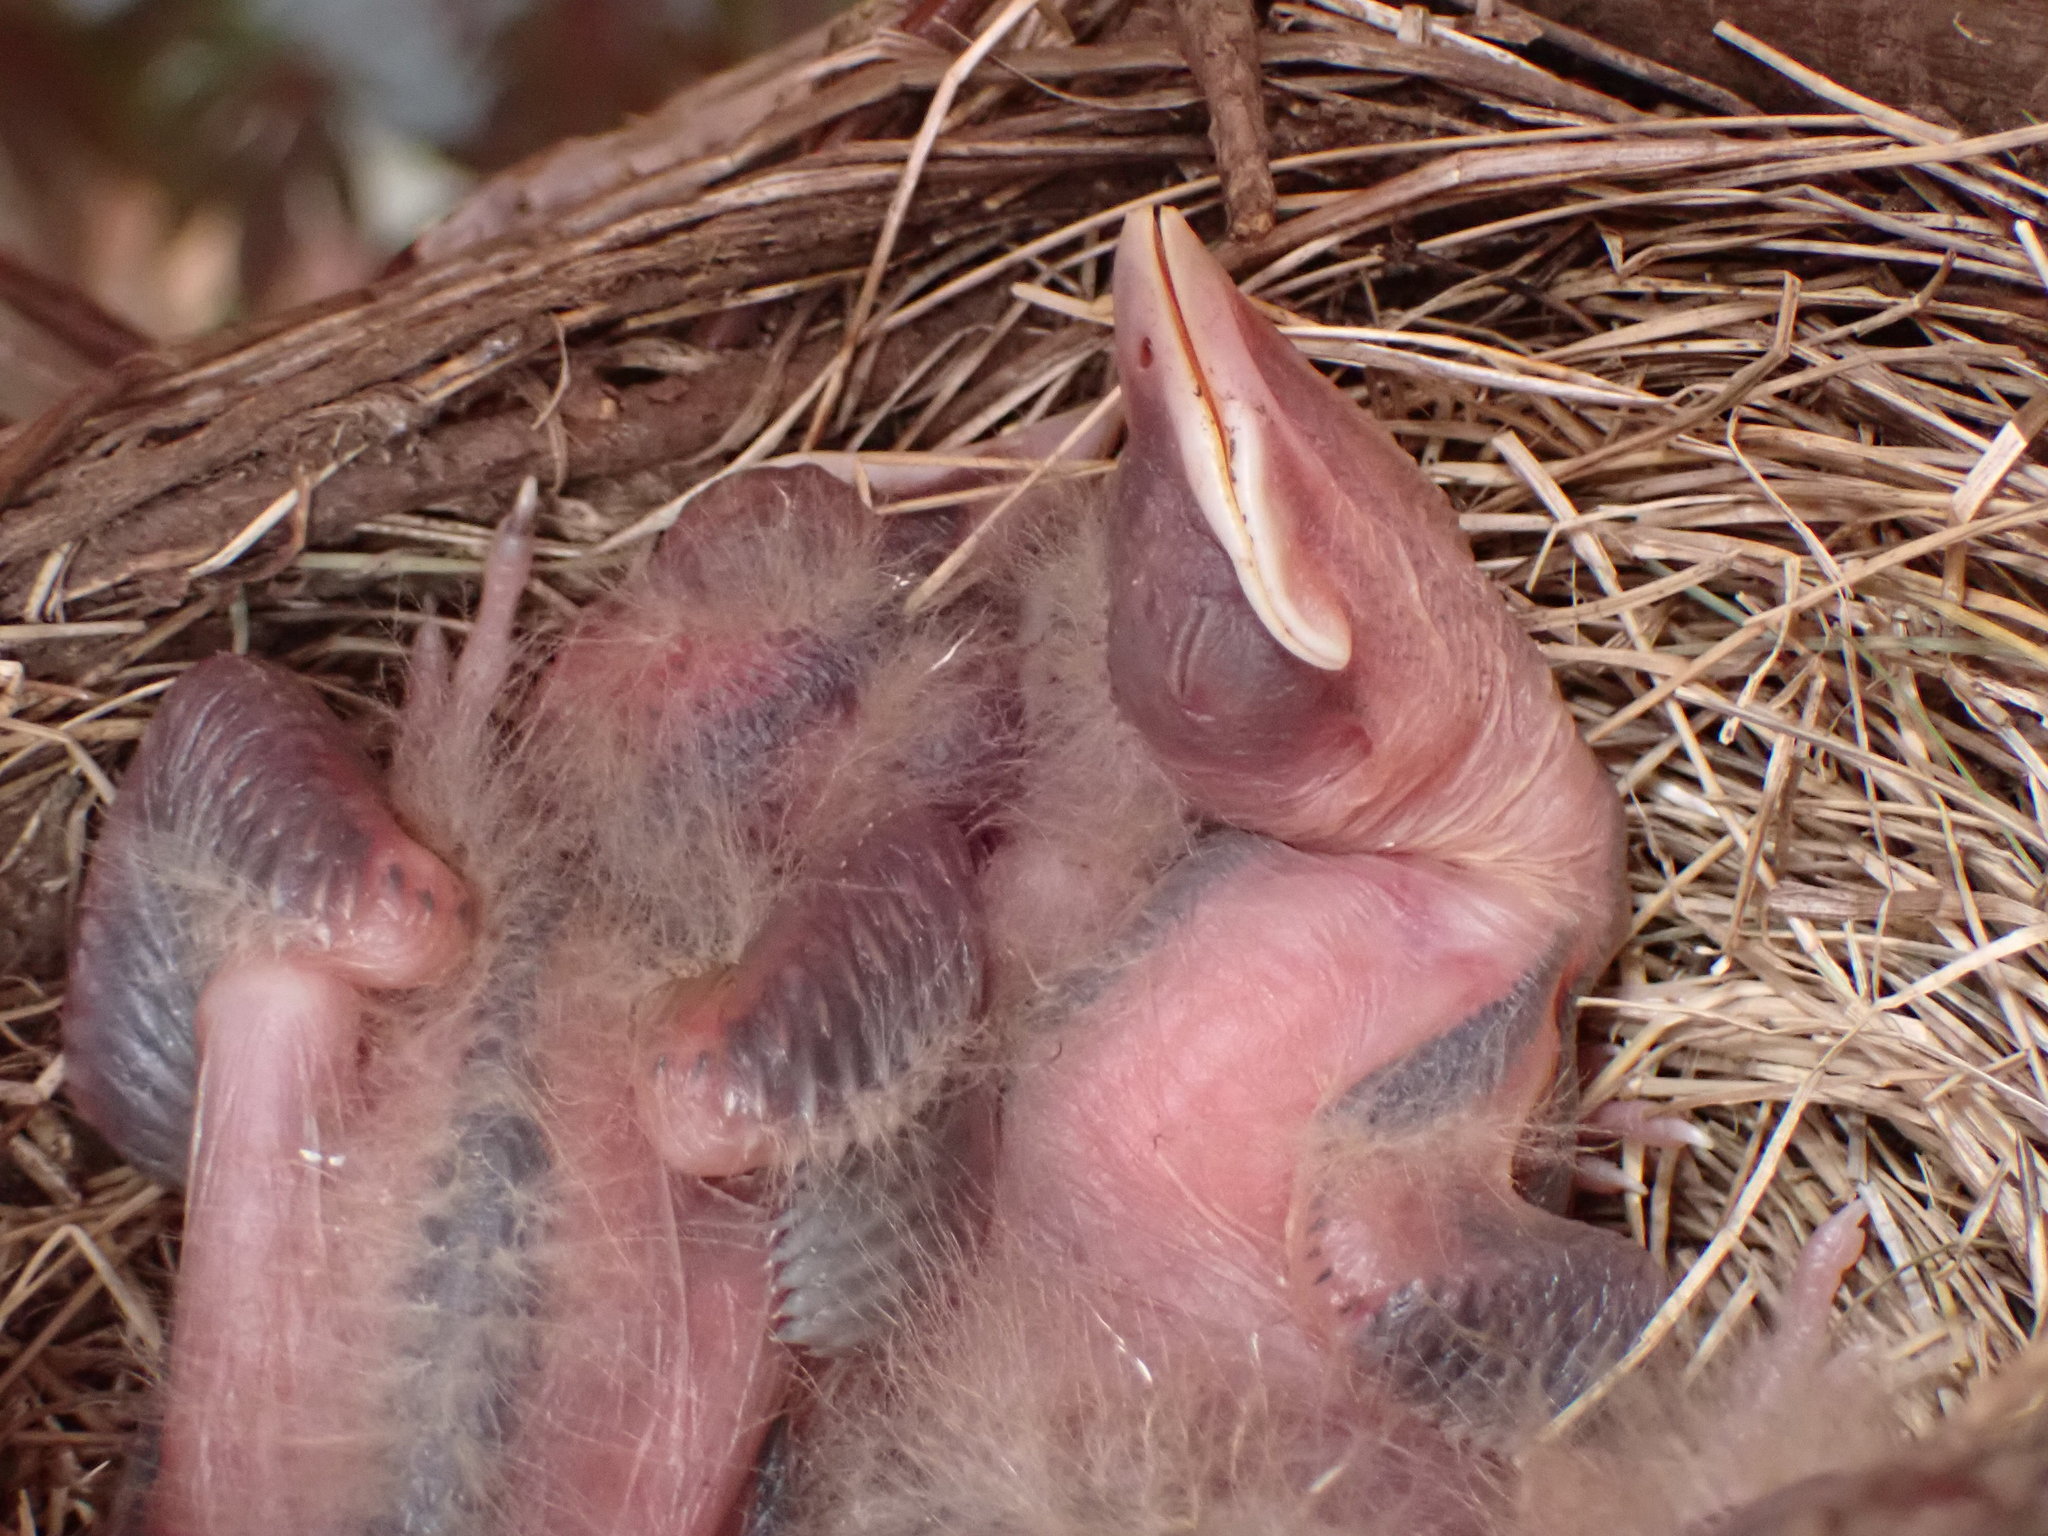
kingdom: Animalia
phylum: Chordata
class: Aves
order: Passeriformes
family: Turdidae
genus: Turdus
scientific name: Turdus migratorius
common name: American robin
